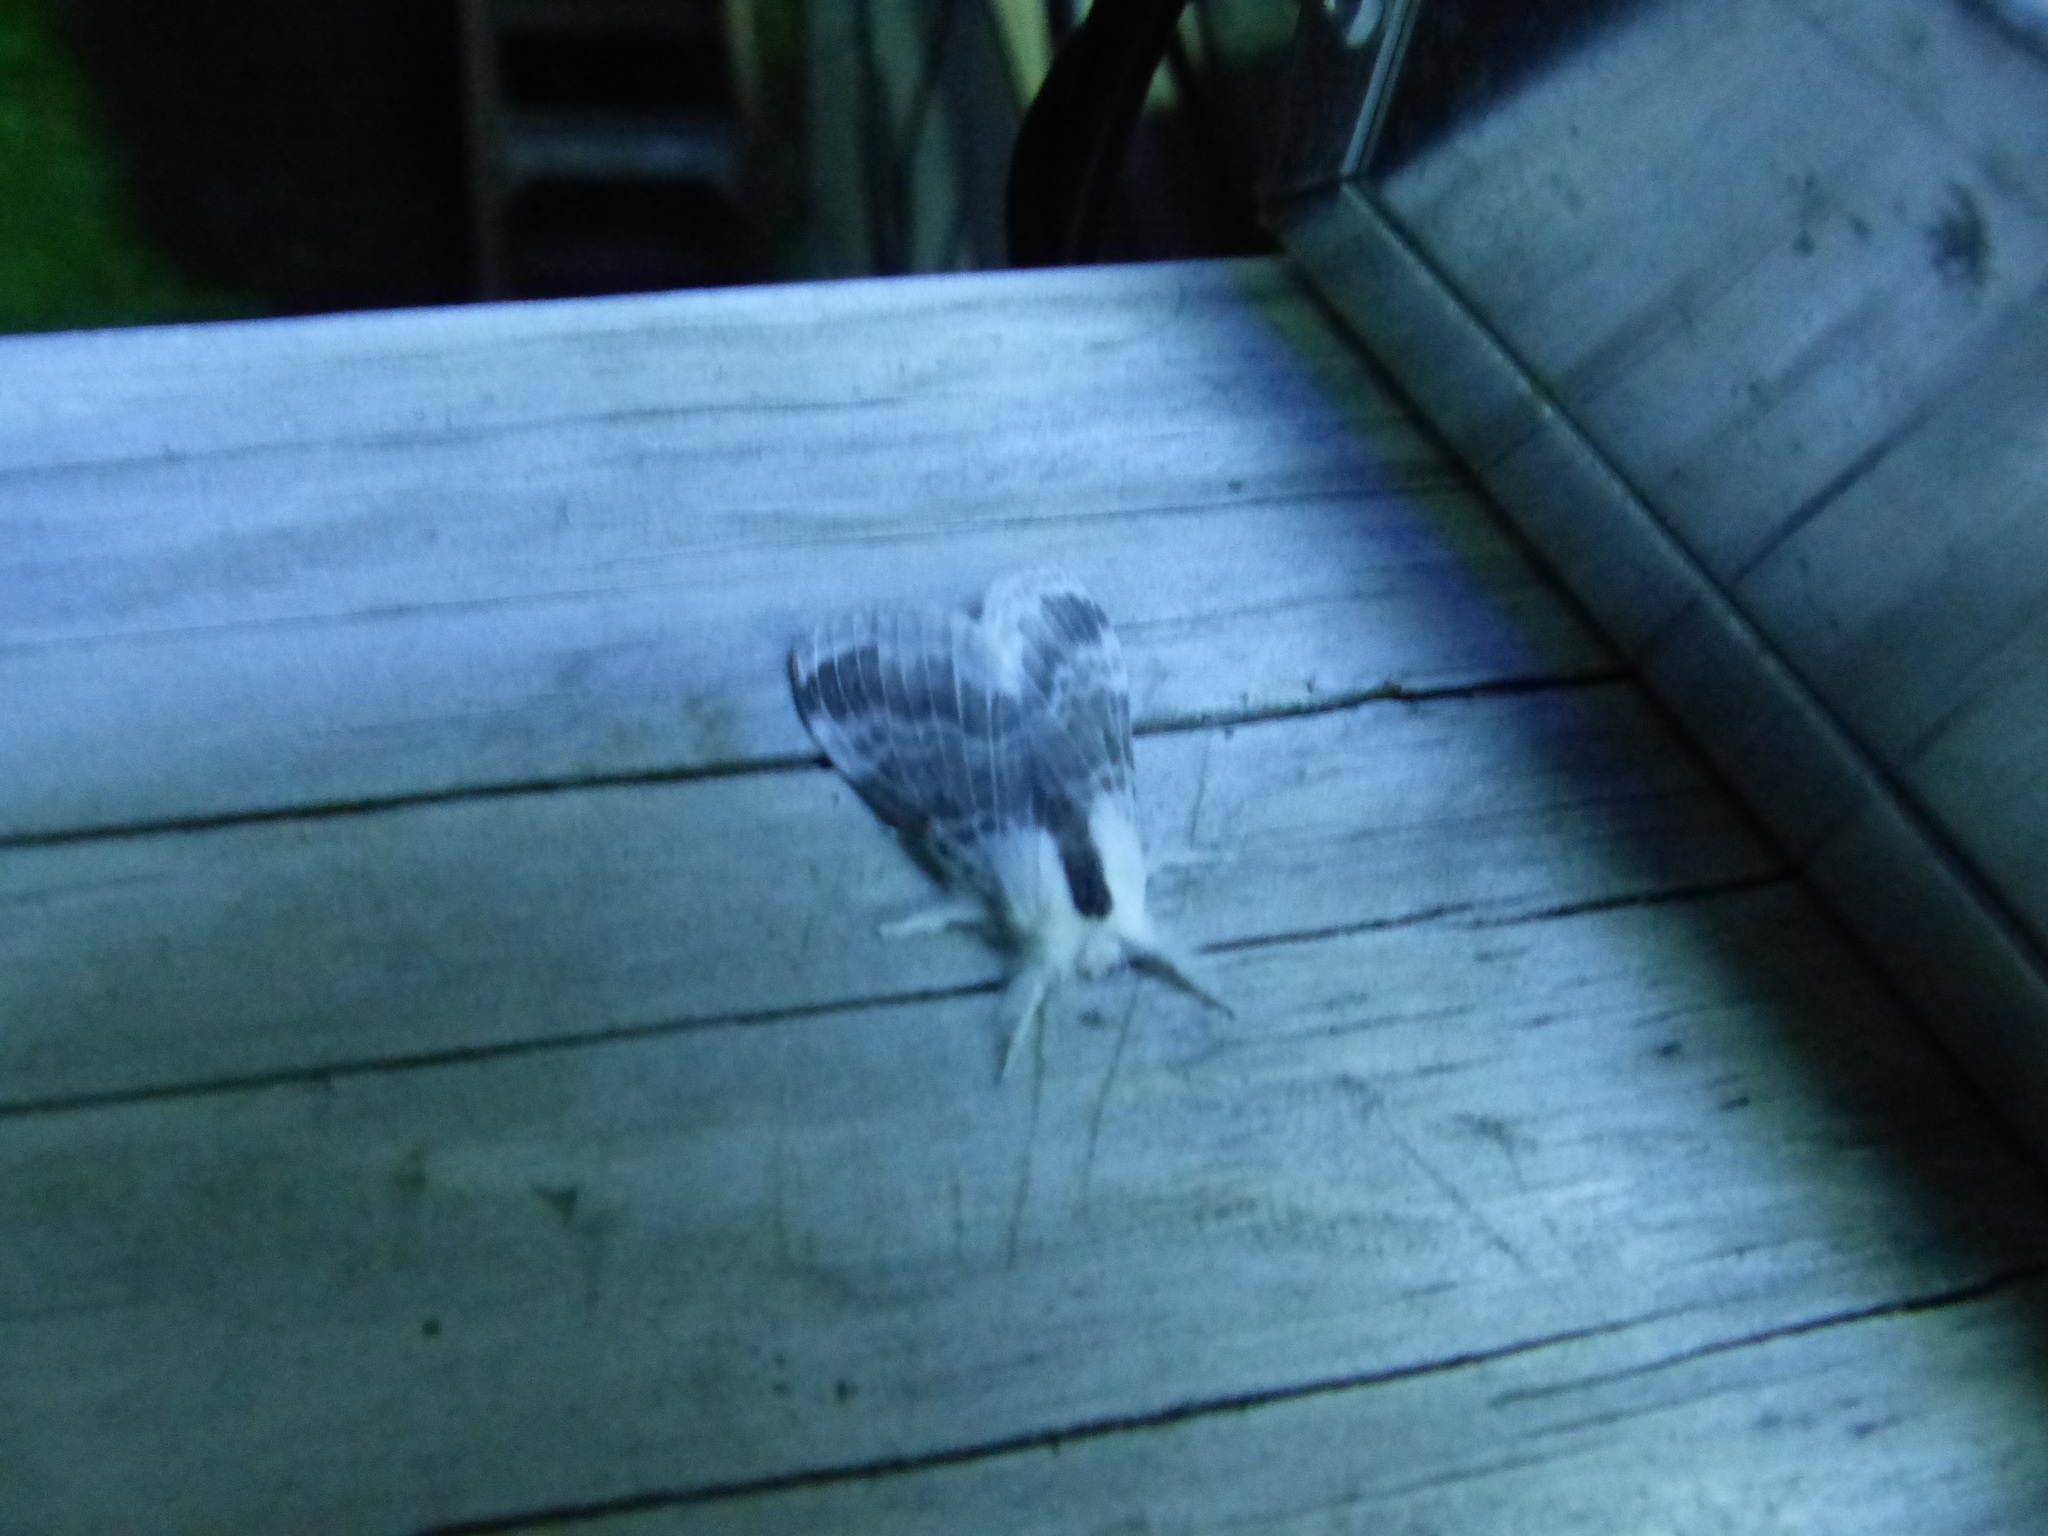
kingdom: Animalia
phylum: Arthropoda
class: Insecta
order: Lepidoptera
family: Lasiocampidae
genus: Tolype
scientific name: Tolype velleda
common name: Large tolype moth
